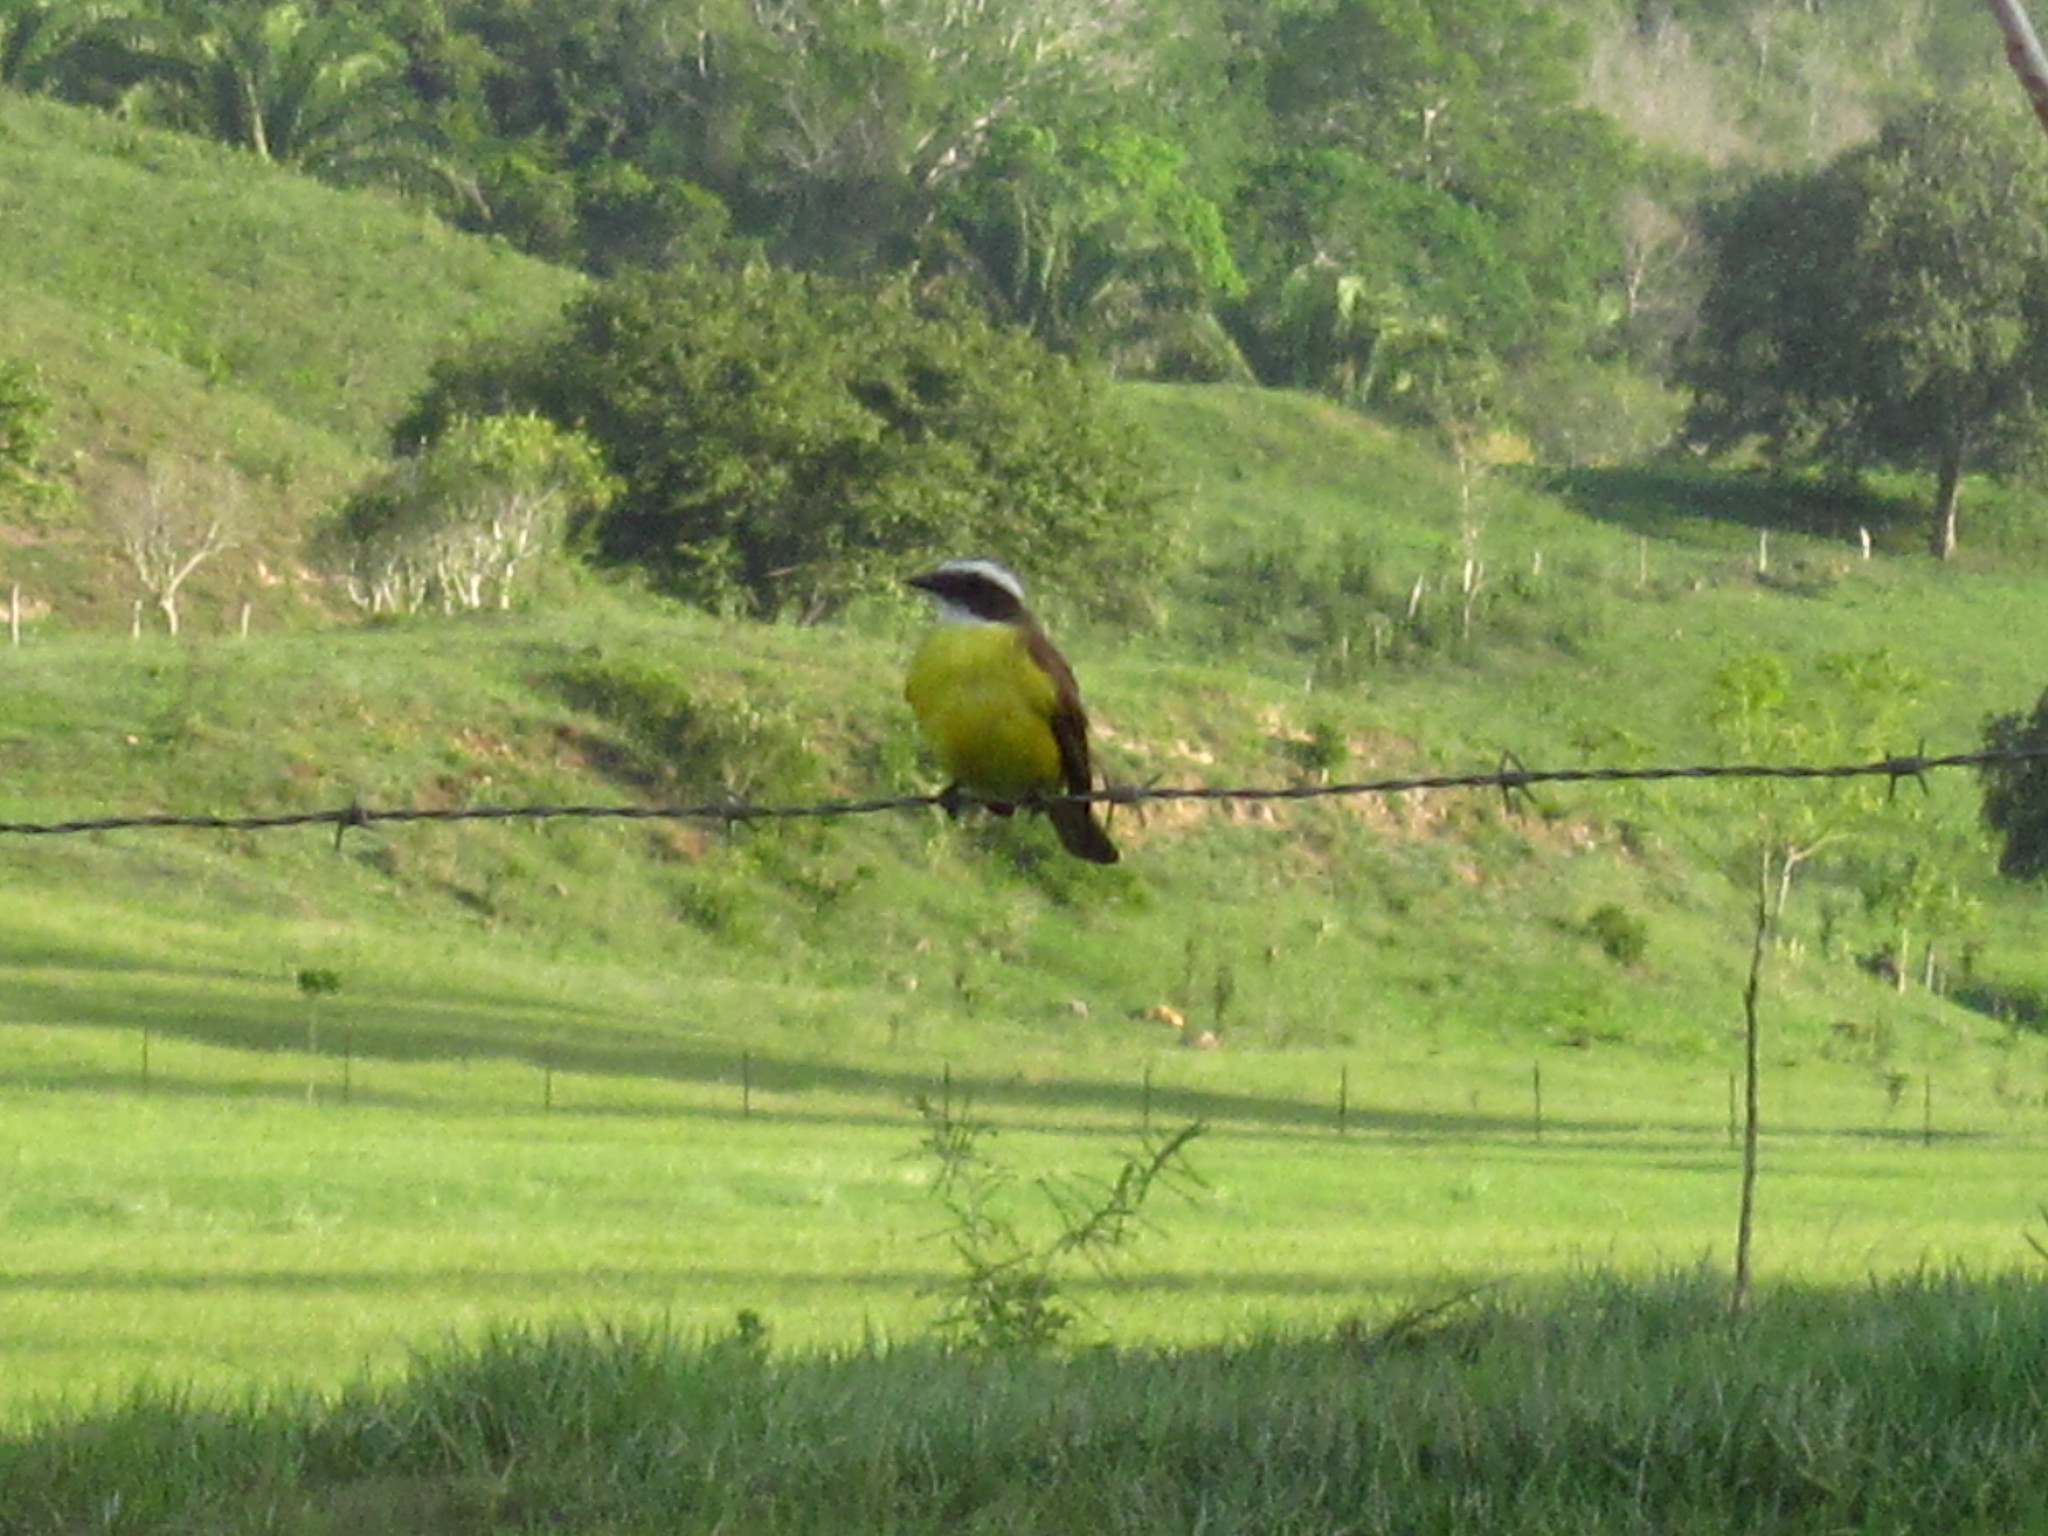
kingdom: Animalia
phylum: Chordata
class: Aves
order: Passeriformes
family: Tyrannidae
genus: Myiozetetes
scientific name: Myiozetetes similis
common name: Social flycatcher
